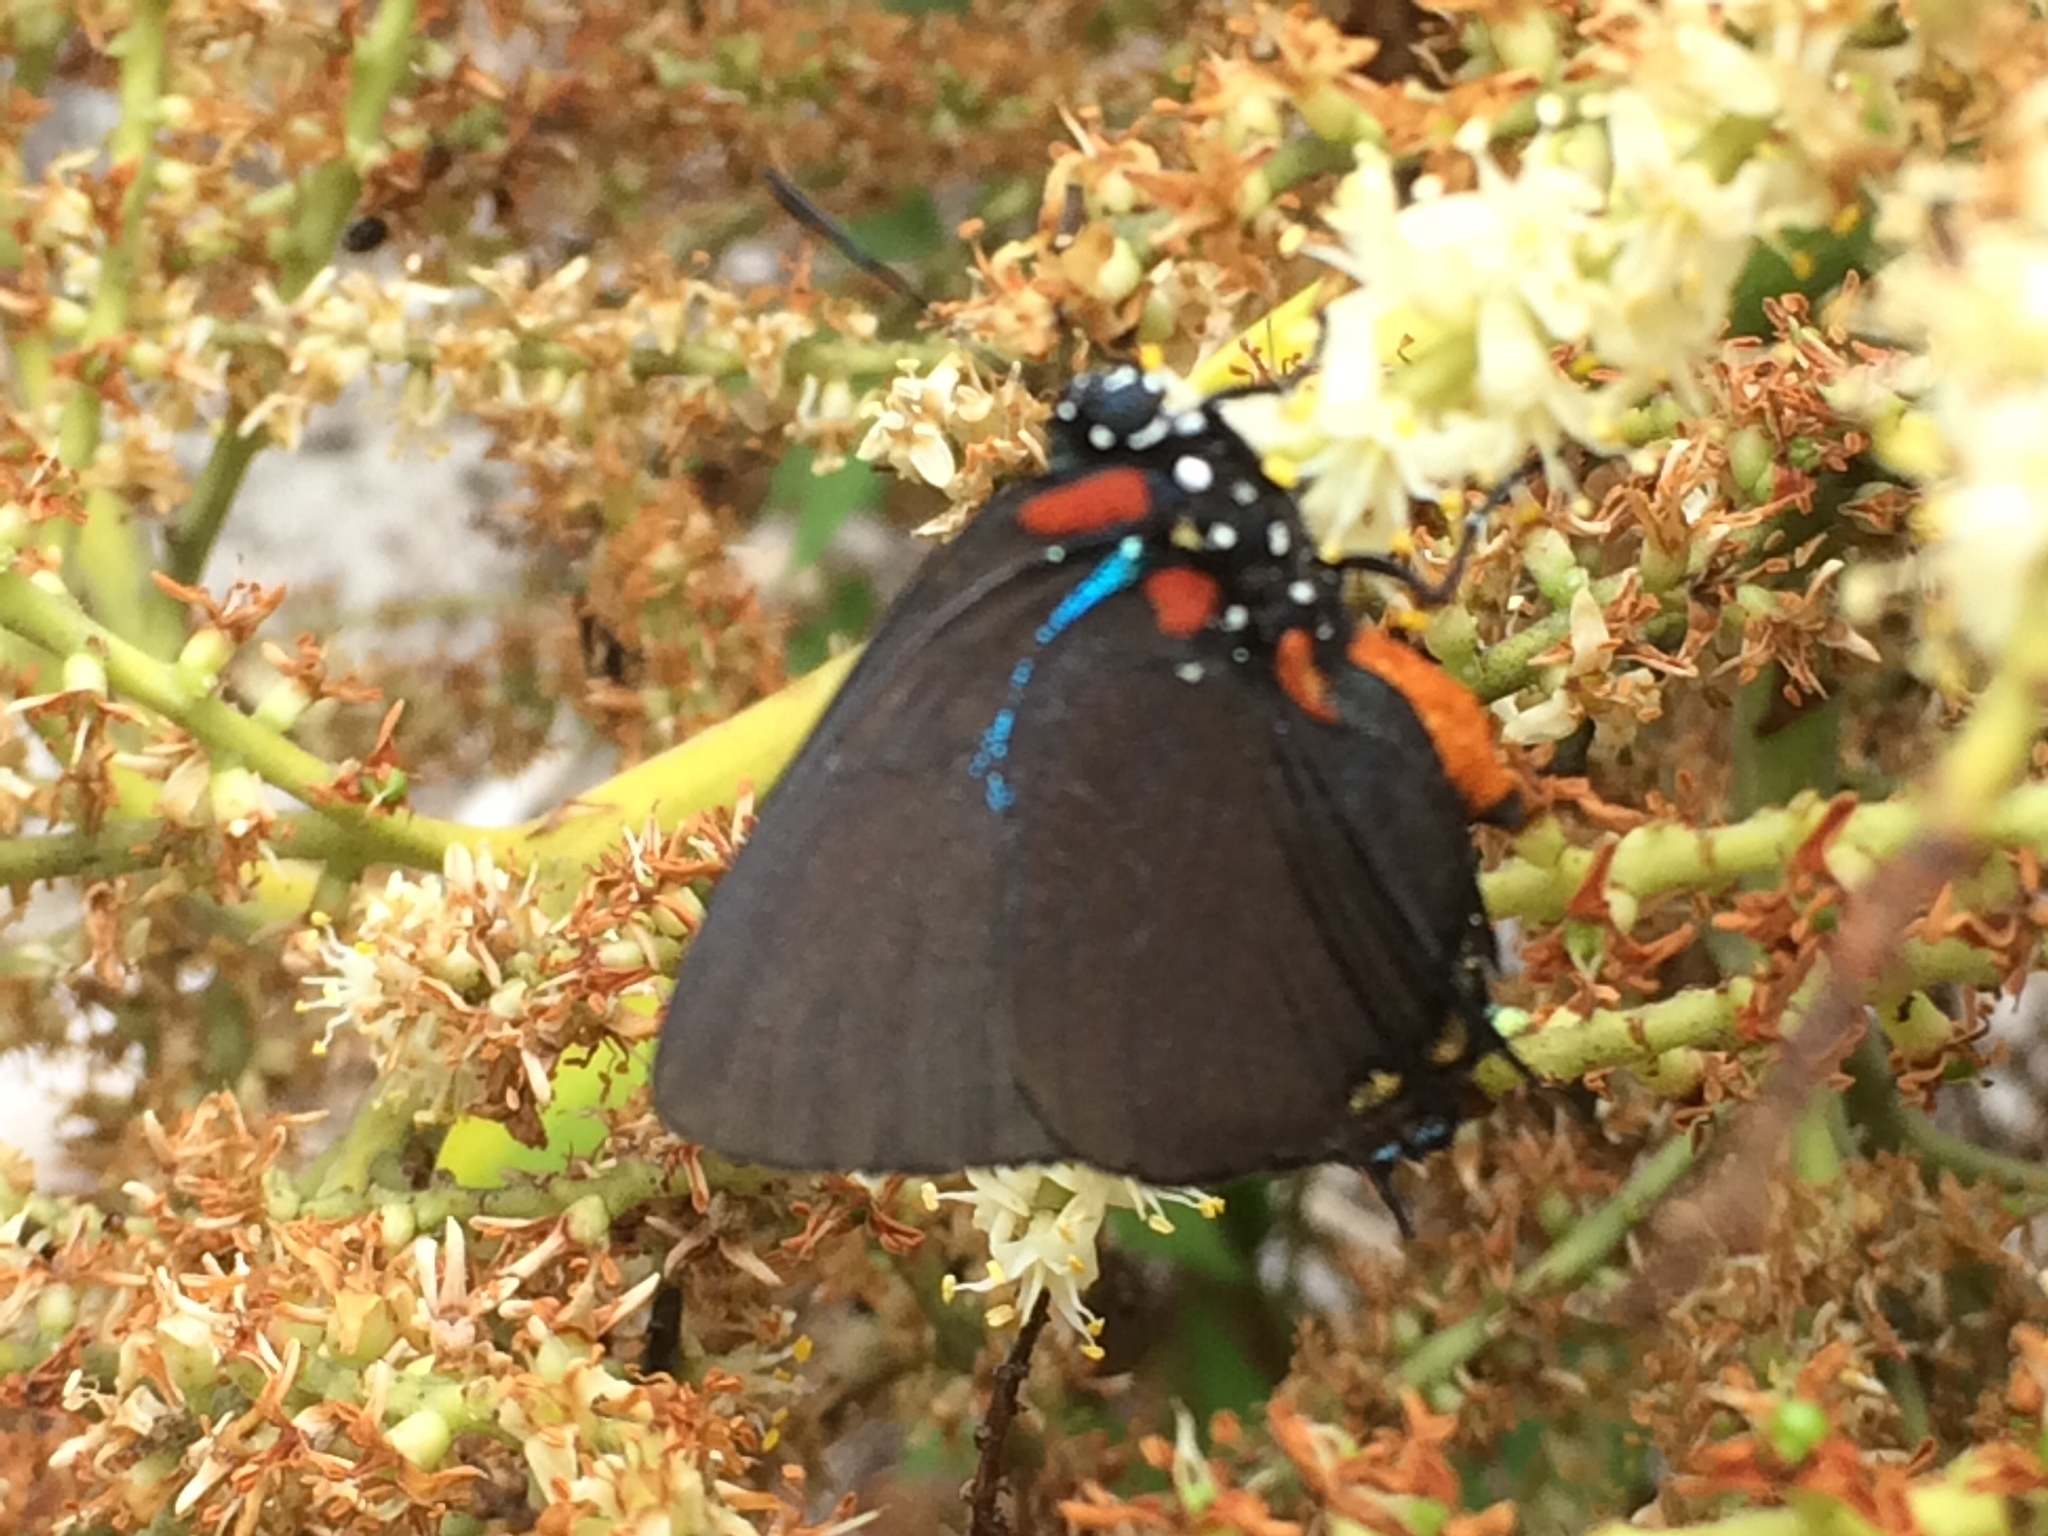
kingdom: Animalia
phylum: Arthropoda
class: Insecta
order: Lepidoptera
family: Lycaenidae
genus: Atlides
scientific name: Atlides halesus
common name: Great purple hairstreak
